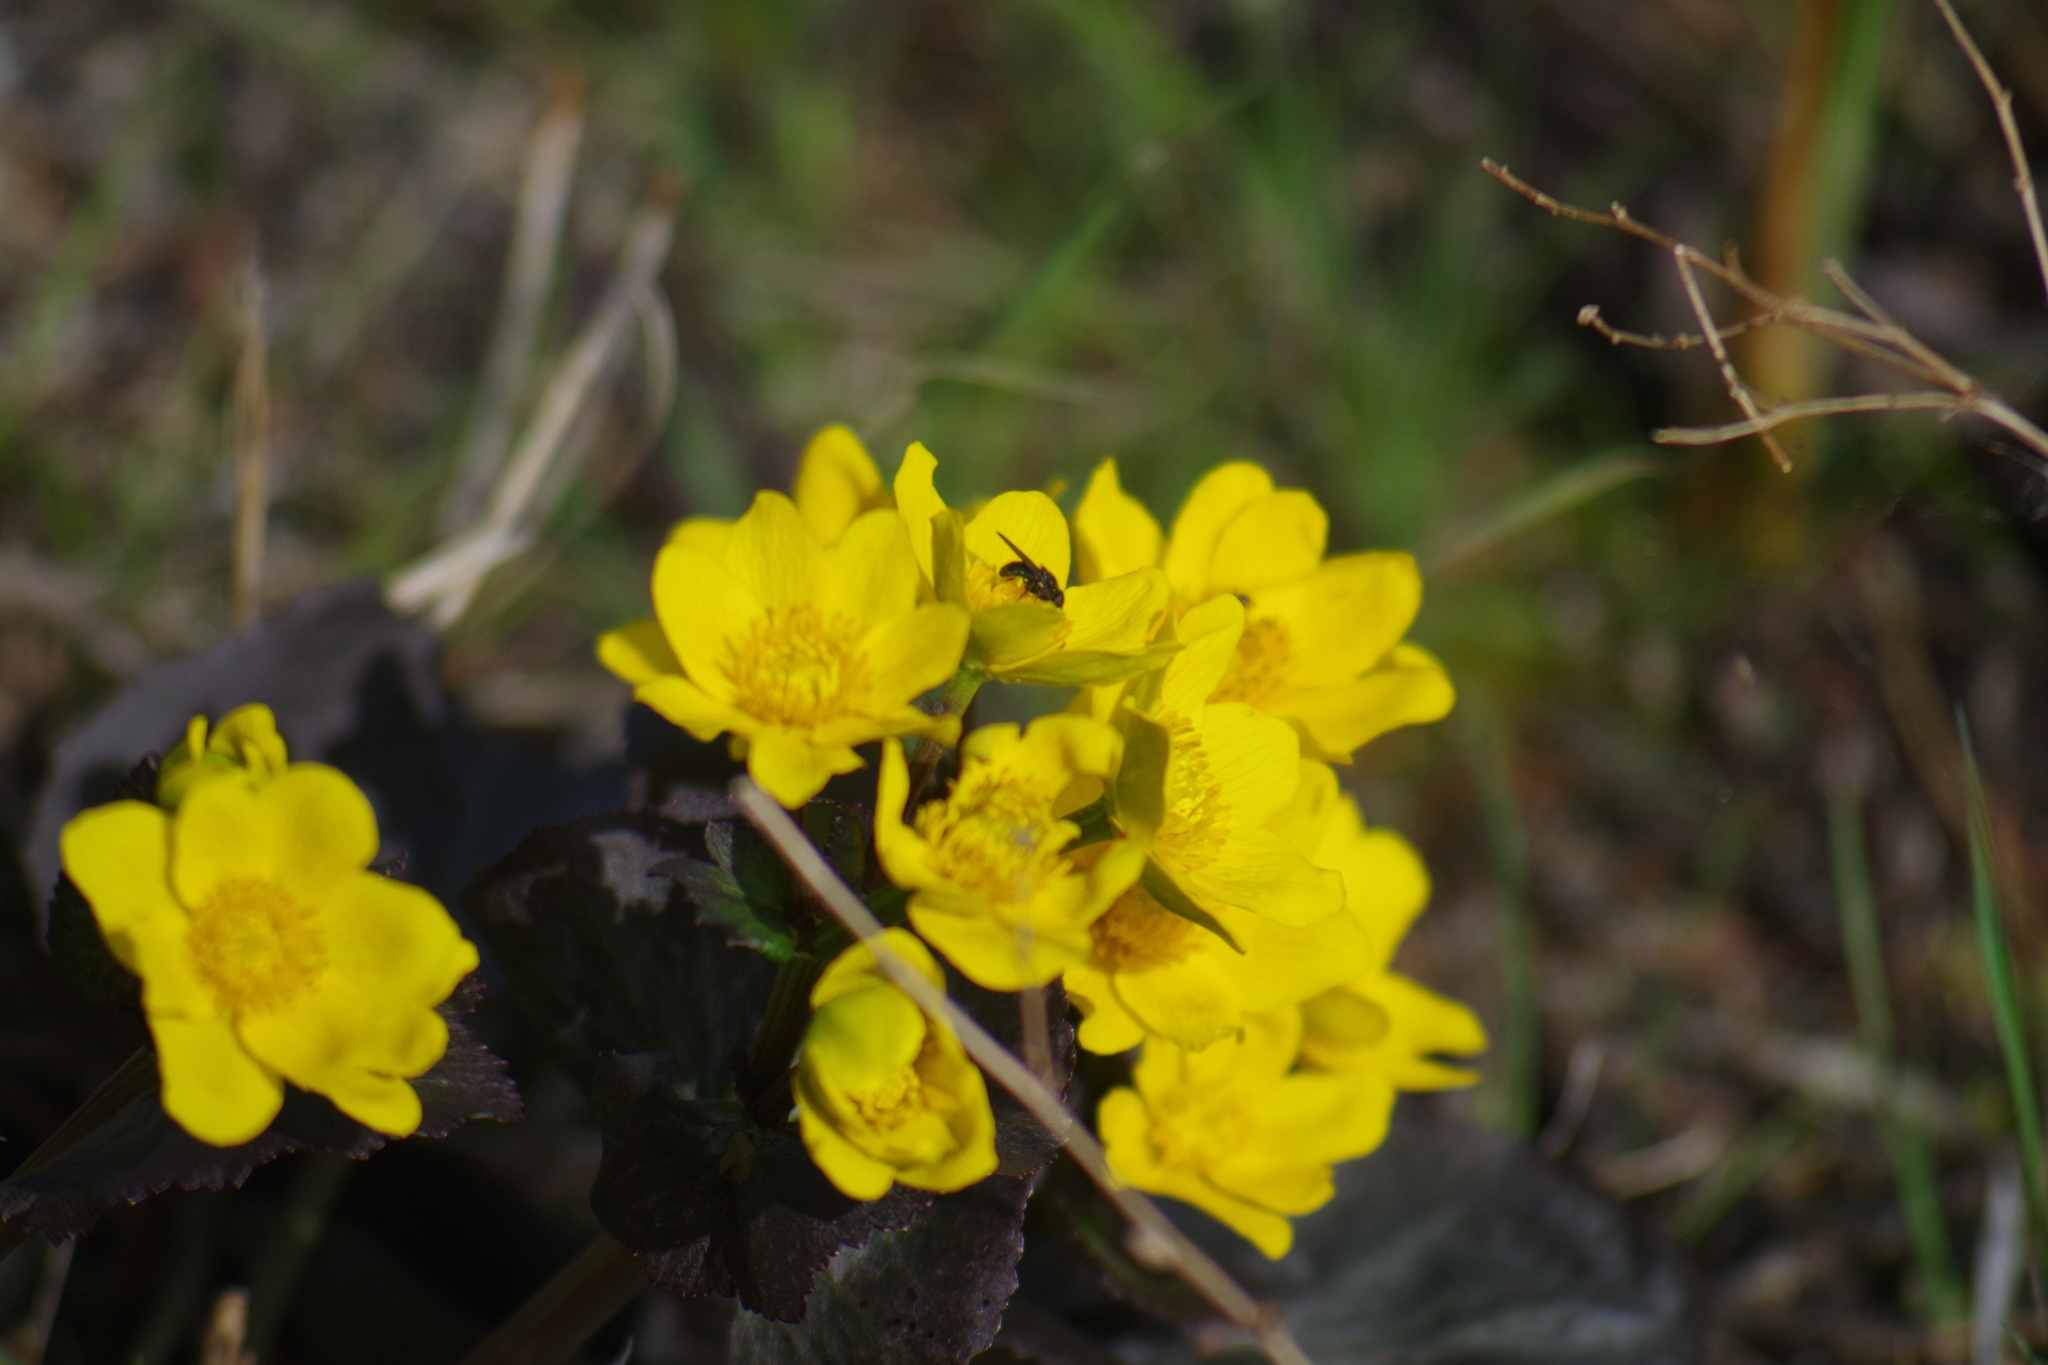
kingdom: Plantae
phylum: Tracheophyta
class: Magnoliopsida
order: Ranunculales
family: Ranunculaceae
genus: Caltha
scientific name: Caltha palustris
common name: Marsh marigold
